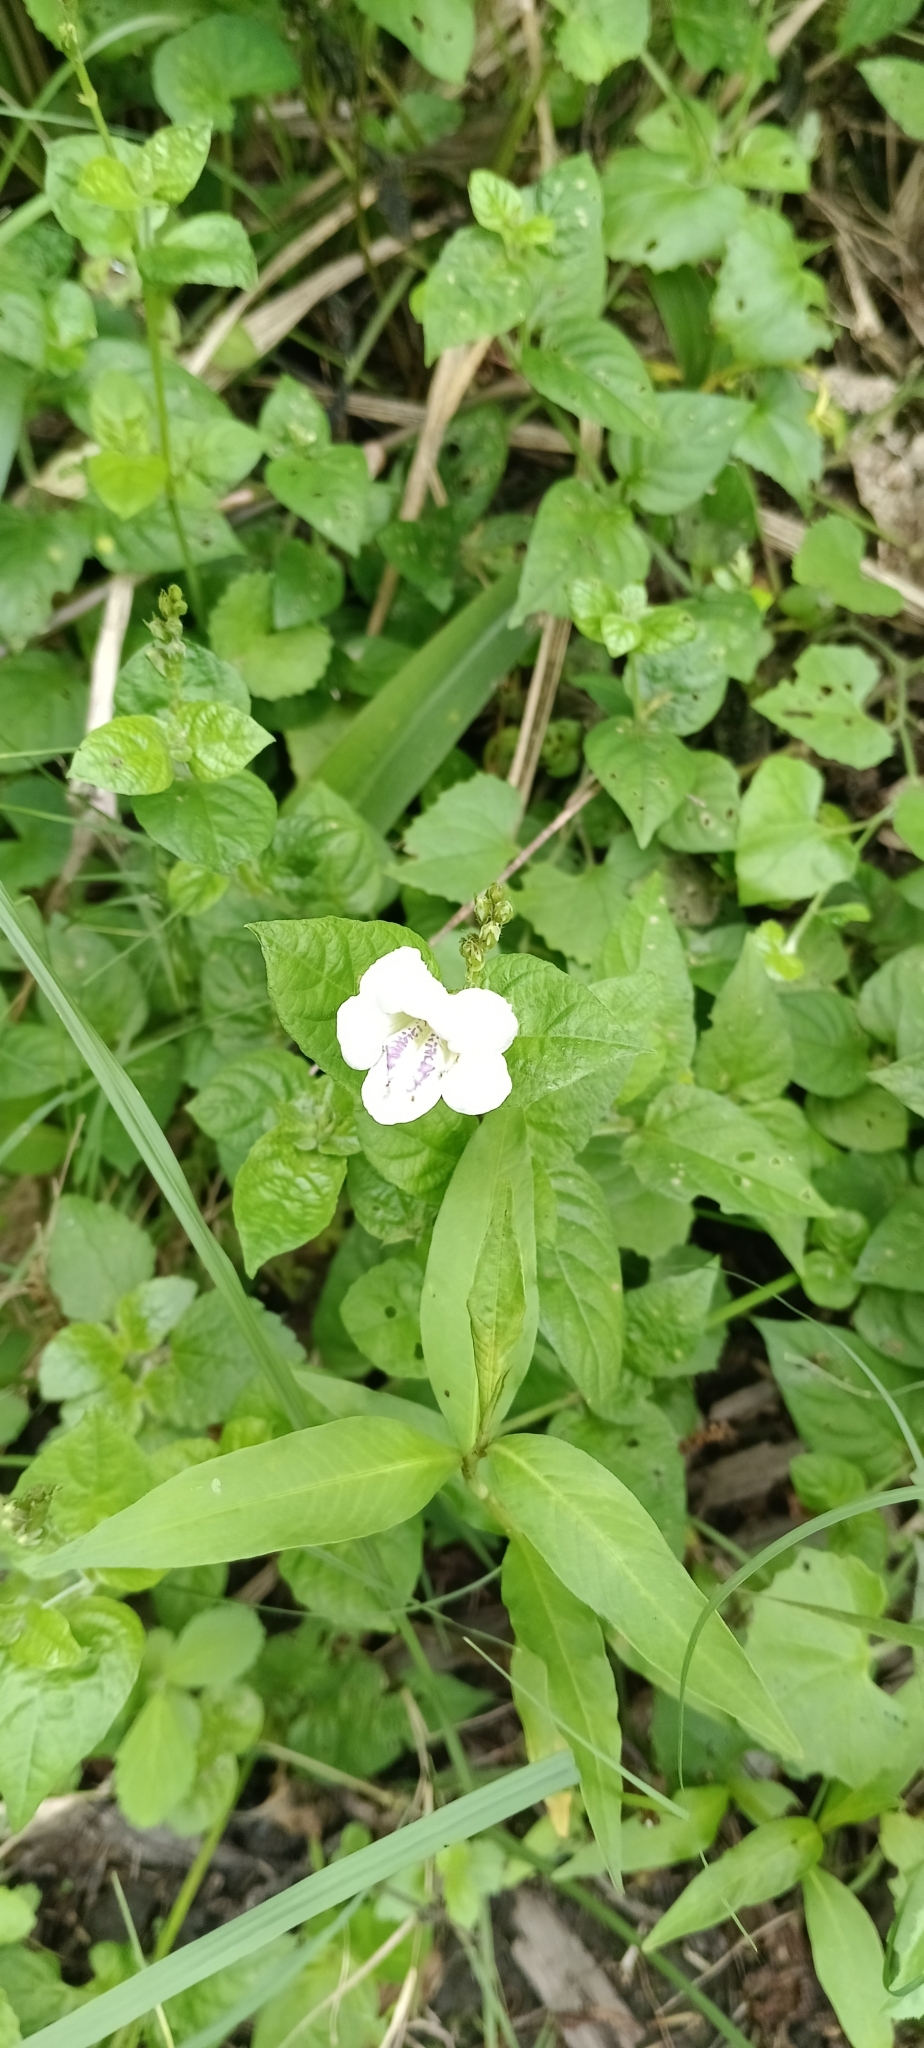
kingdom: Plantae
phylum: Tracheophyta
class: Magnoliopsida
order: Lamiales
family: Acanthaceae
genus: Asystasia
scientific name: Asystasia intrusa
